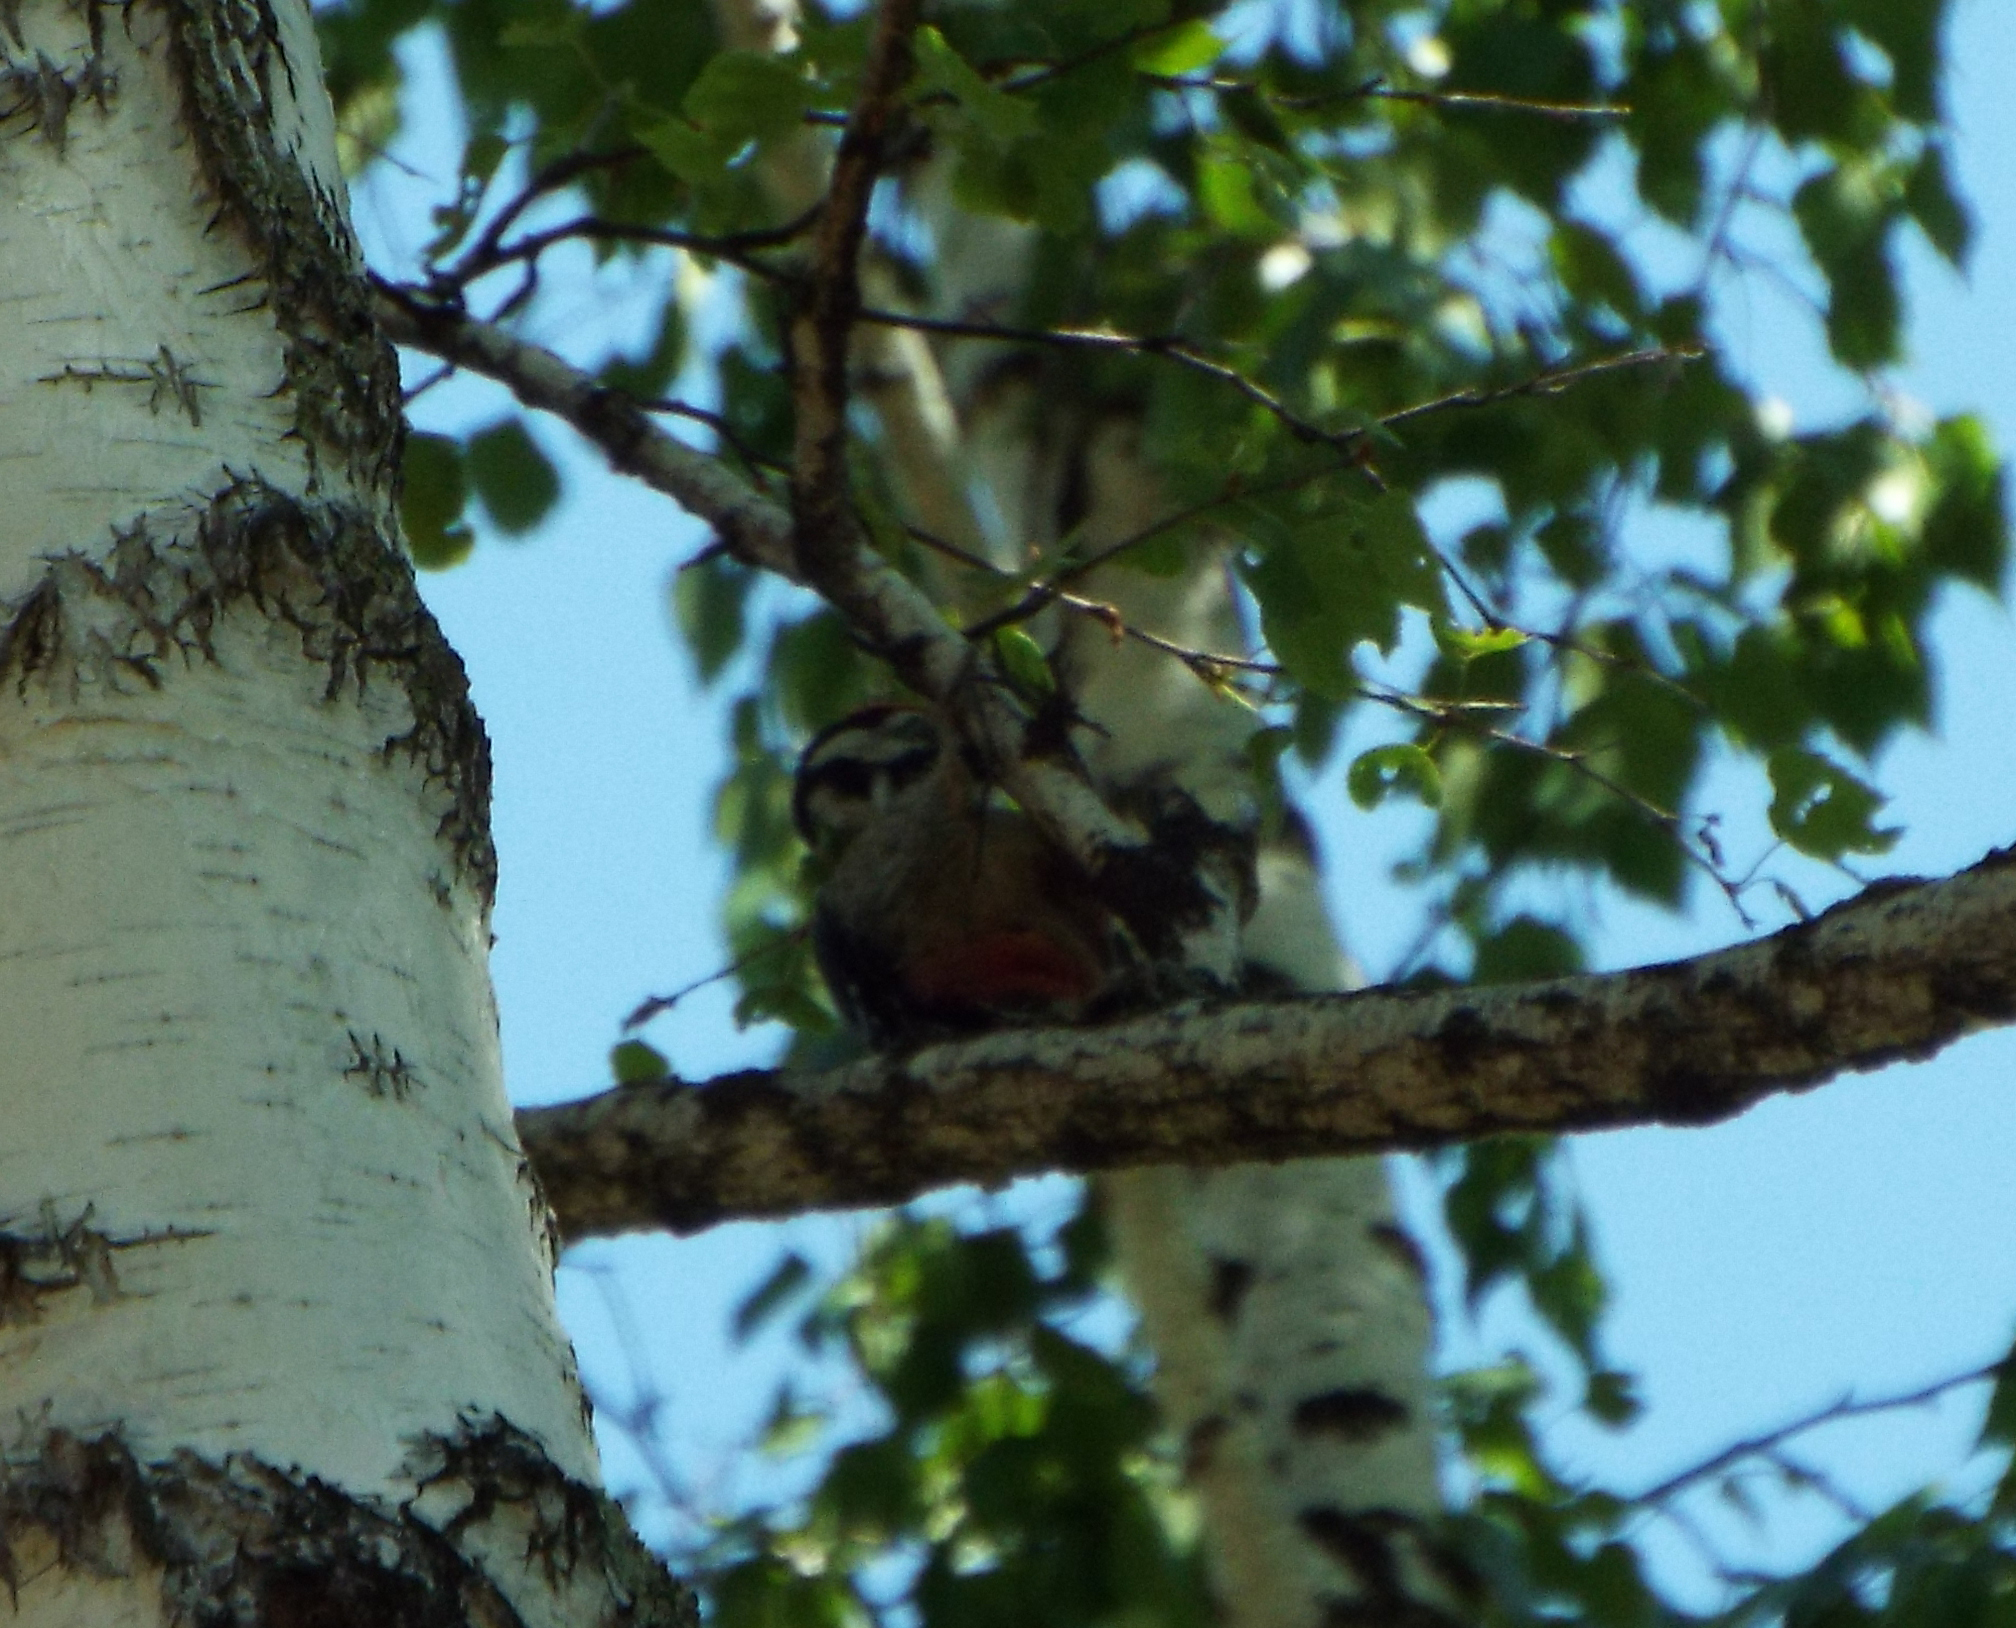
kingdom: Animalia
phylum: Chordata
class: Aves
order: Piciformes
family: Picidae
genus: Dendrocopos
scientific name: Dendrocopos major
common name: Great spotted woodpecker
